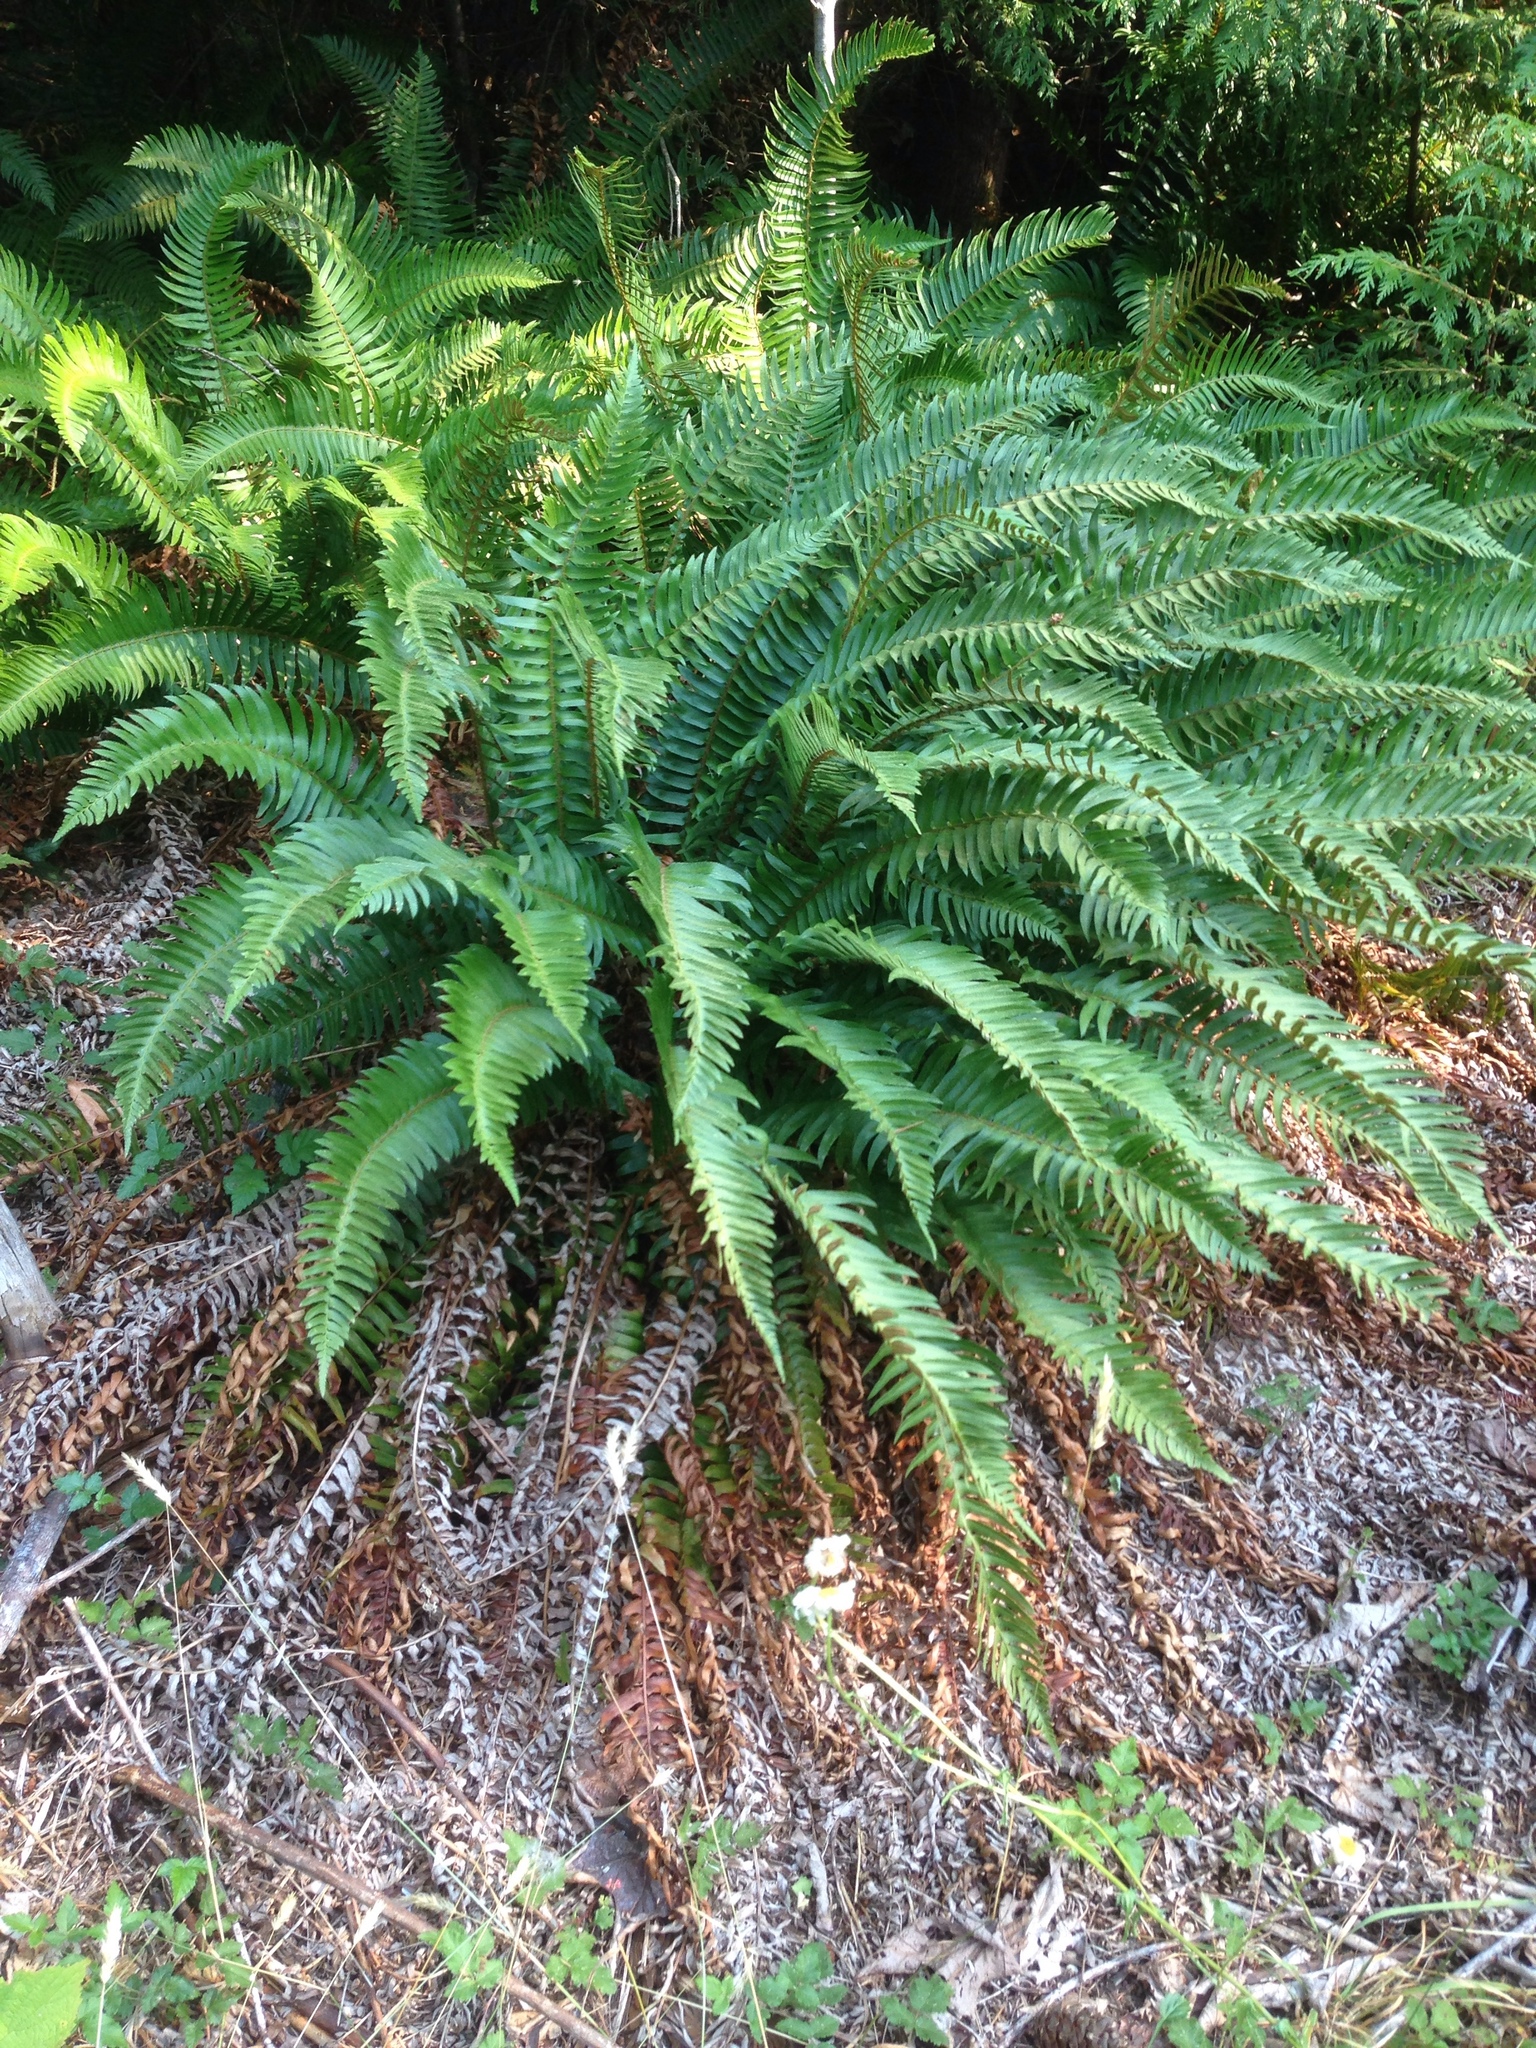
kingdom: Plantae
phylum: Tracheophyta
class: Polypodiopsida
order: Polypodiales
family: Dryopteridaceae
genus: Polystichum
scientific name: Polystichum munitum
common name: Western sword-fern
